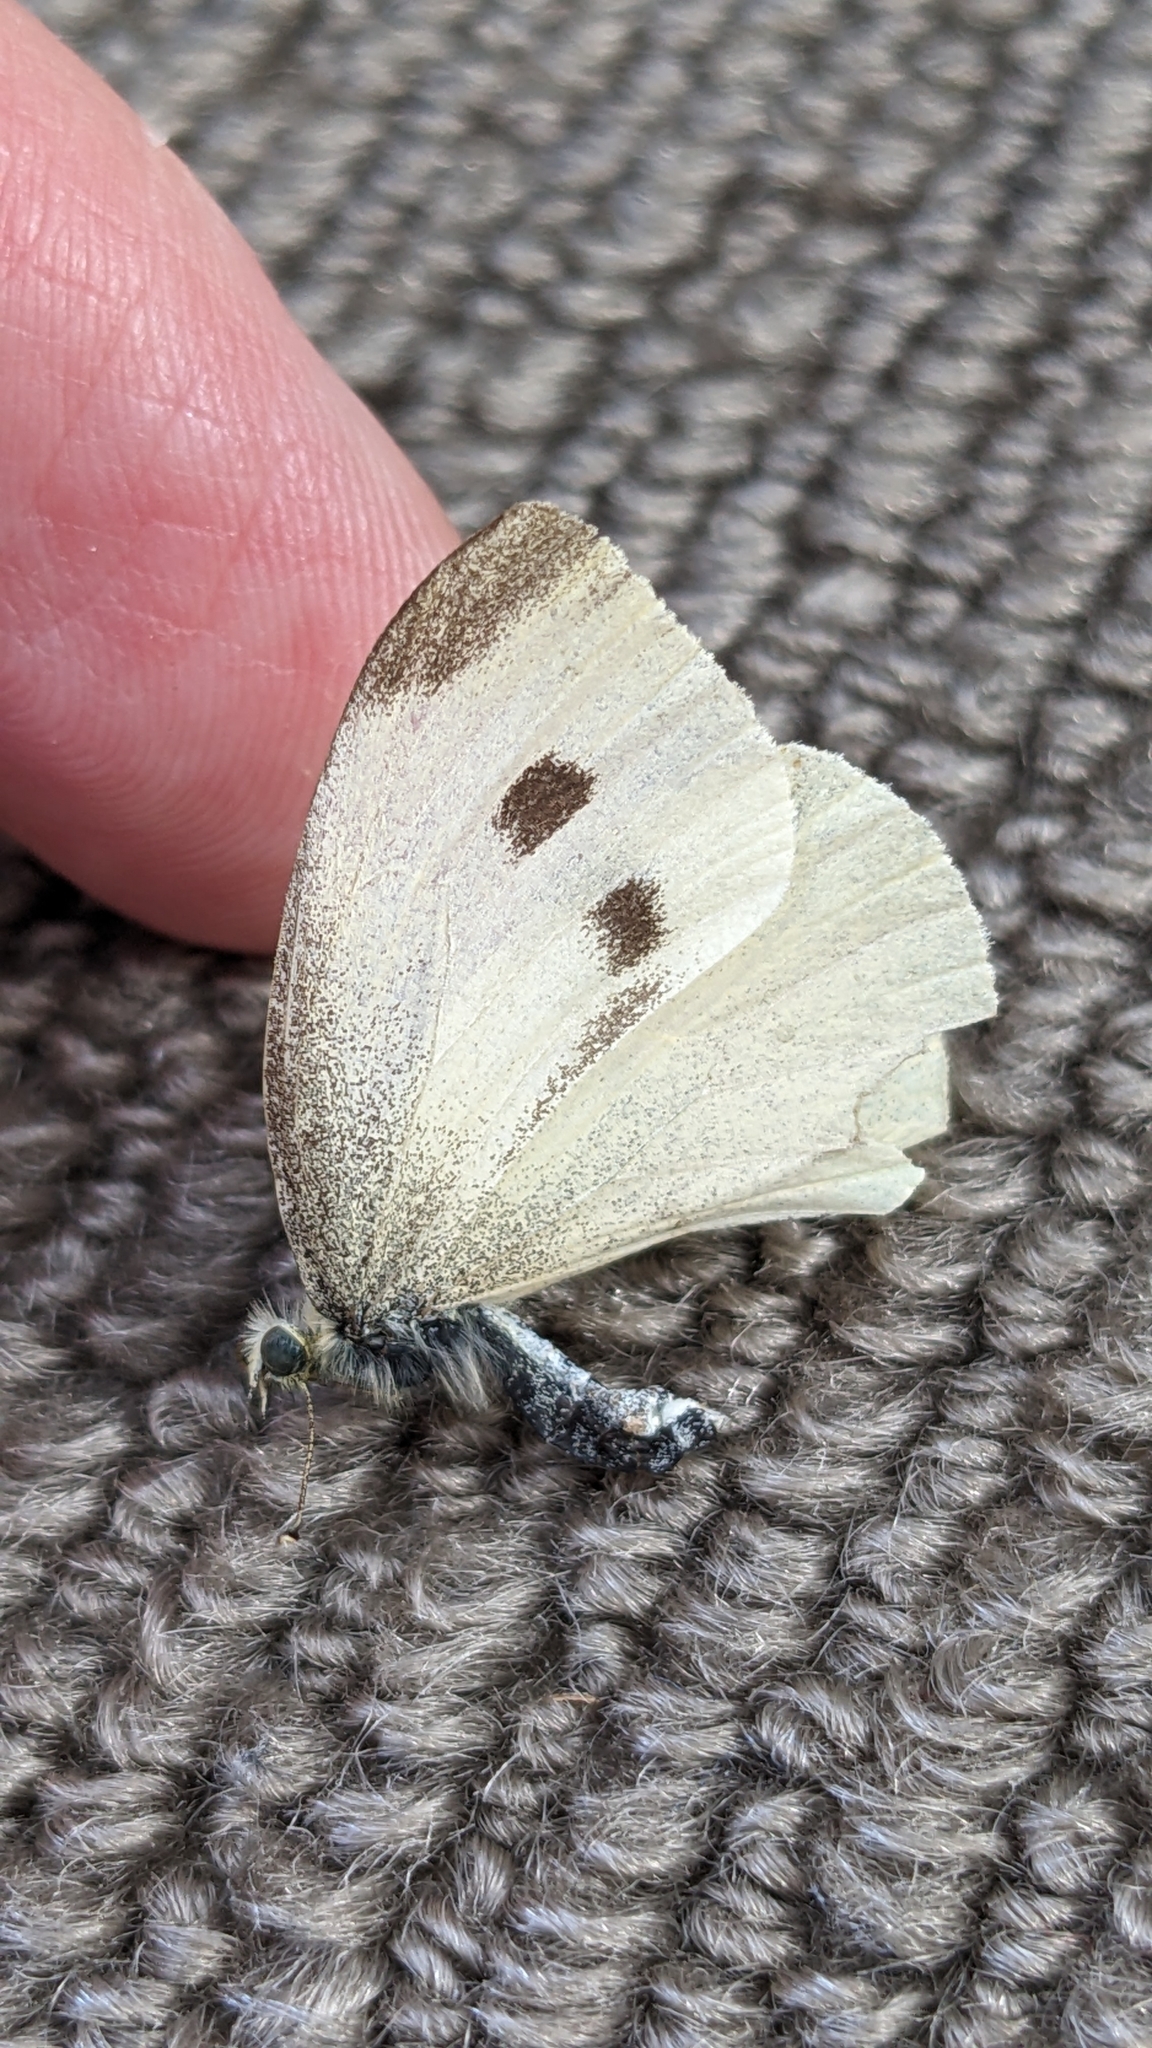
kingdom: Animalia
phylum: Arthropoda
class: Insecta
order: Lepidoptera
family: Pieridae
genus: Pieris
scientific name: Pieris rapae
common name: Small white
